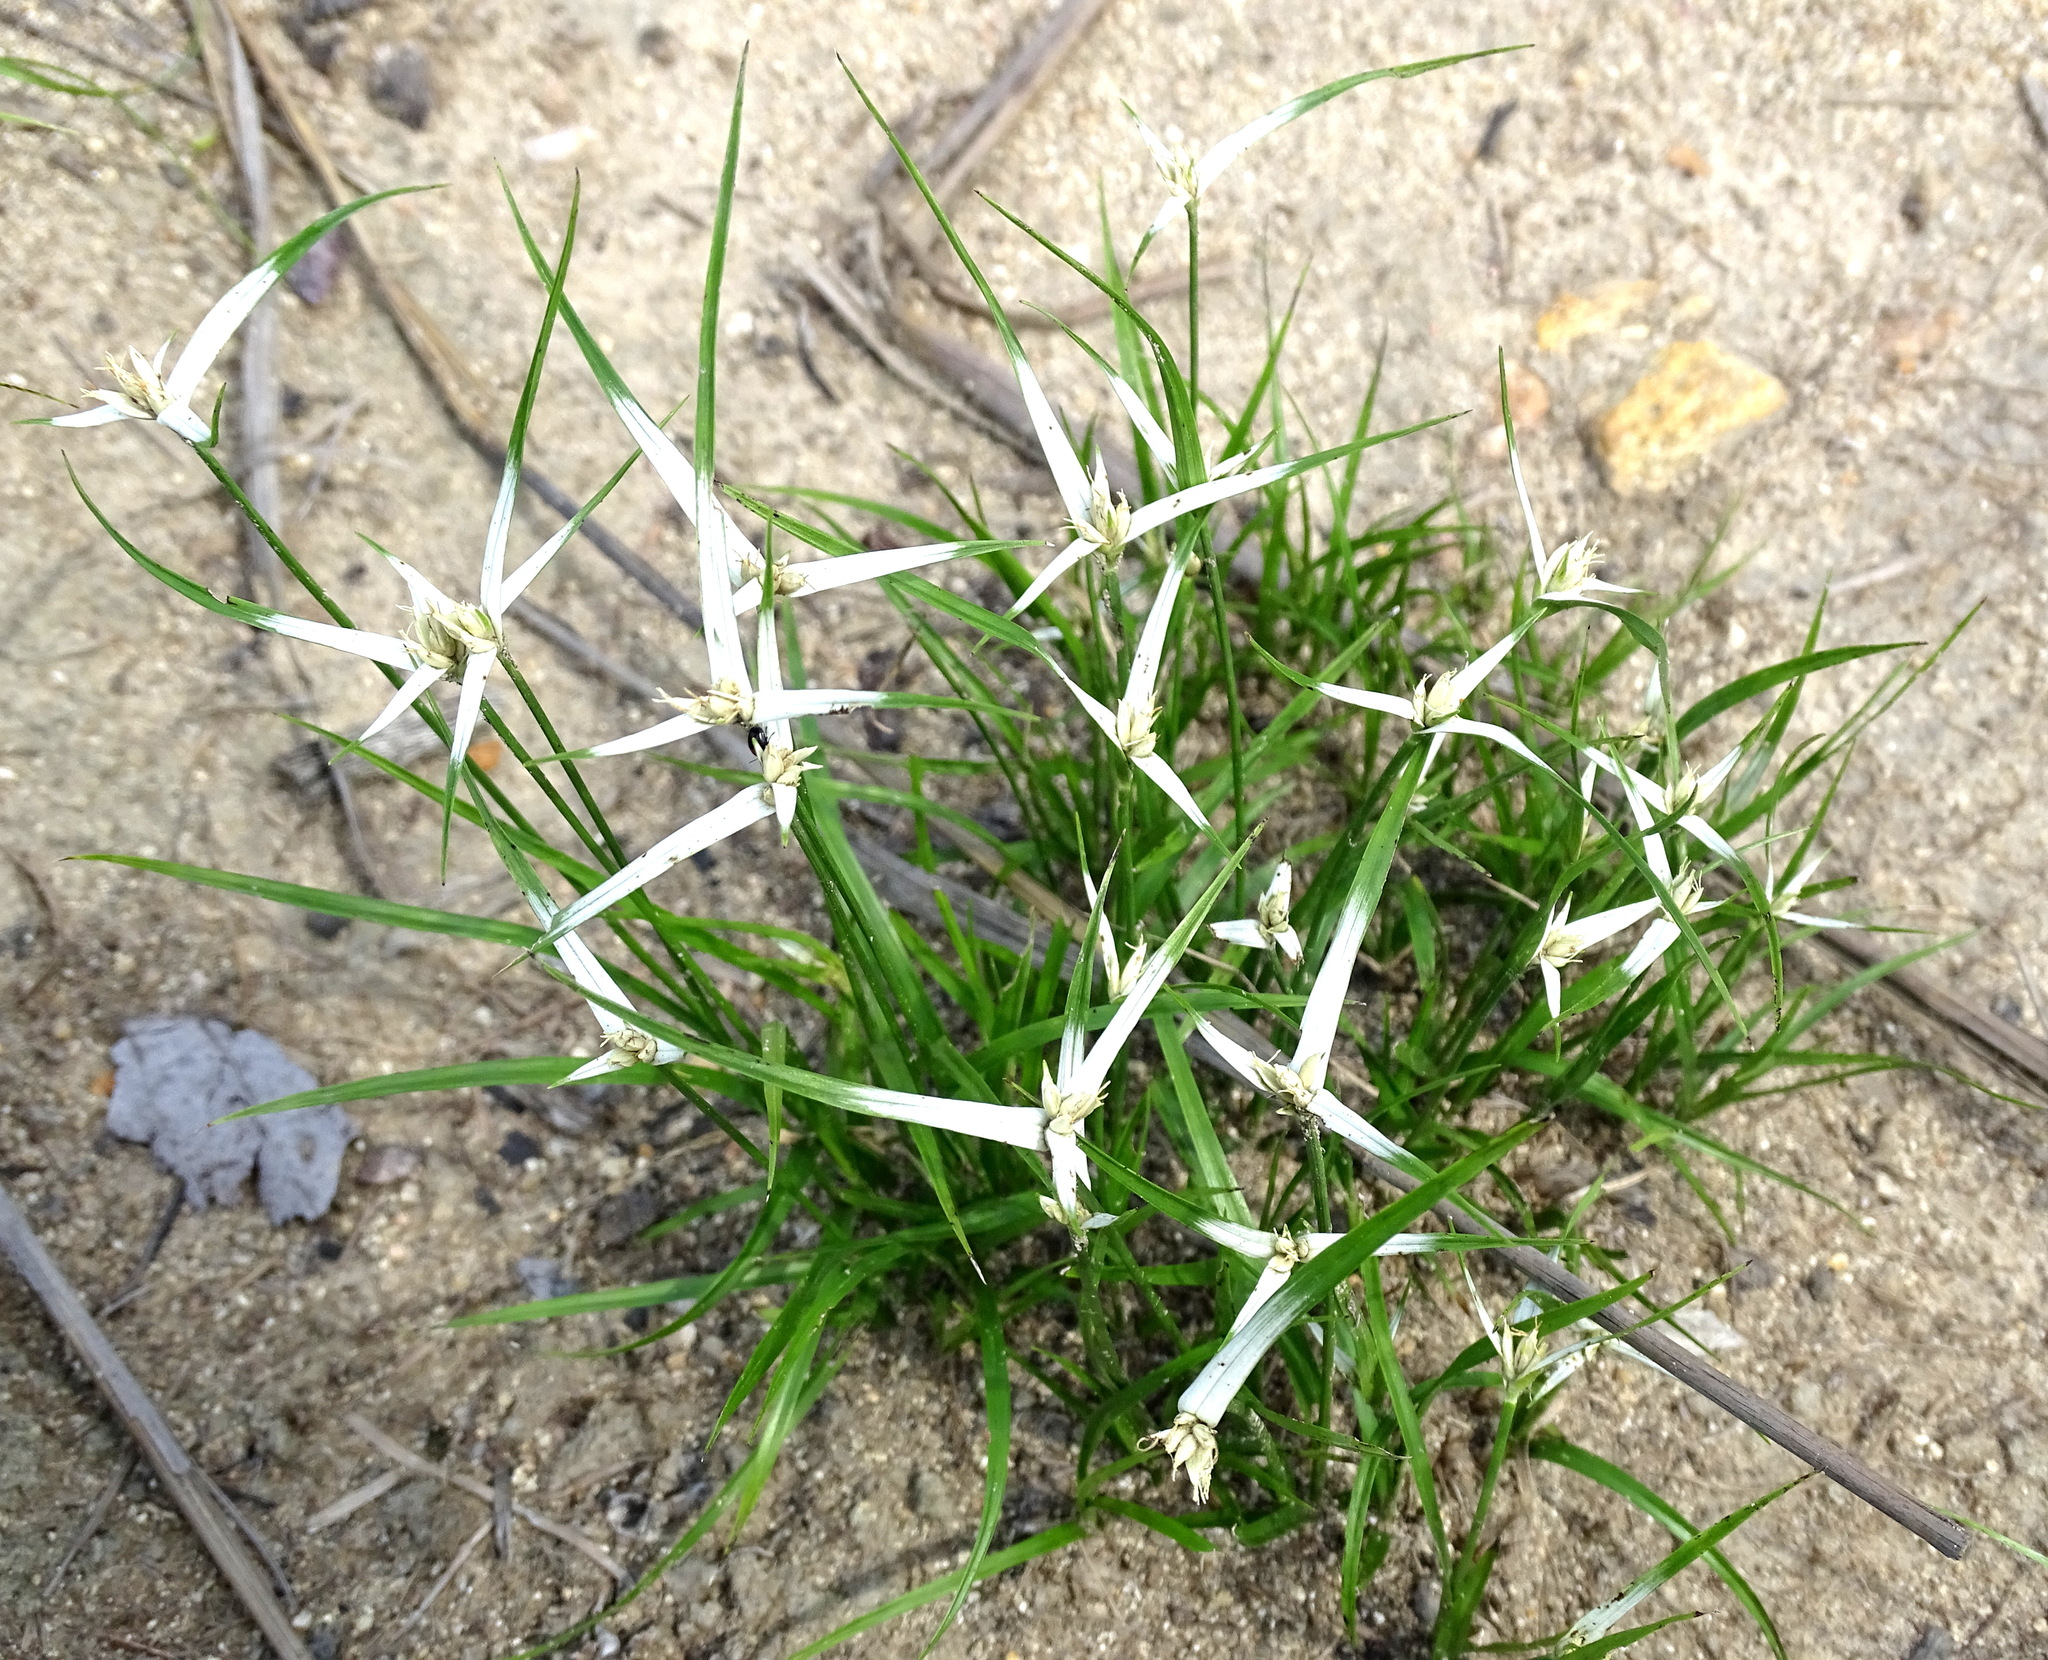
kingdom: Plantae
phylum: Tracheophyta
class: Liliopsida
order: Poales
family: Cyperaceae
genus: Rhynchospora
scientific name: Rhynchospora nervosa
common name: Star sedge
